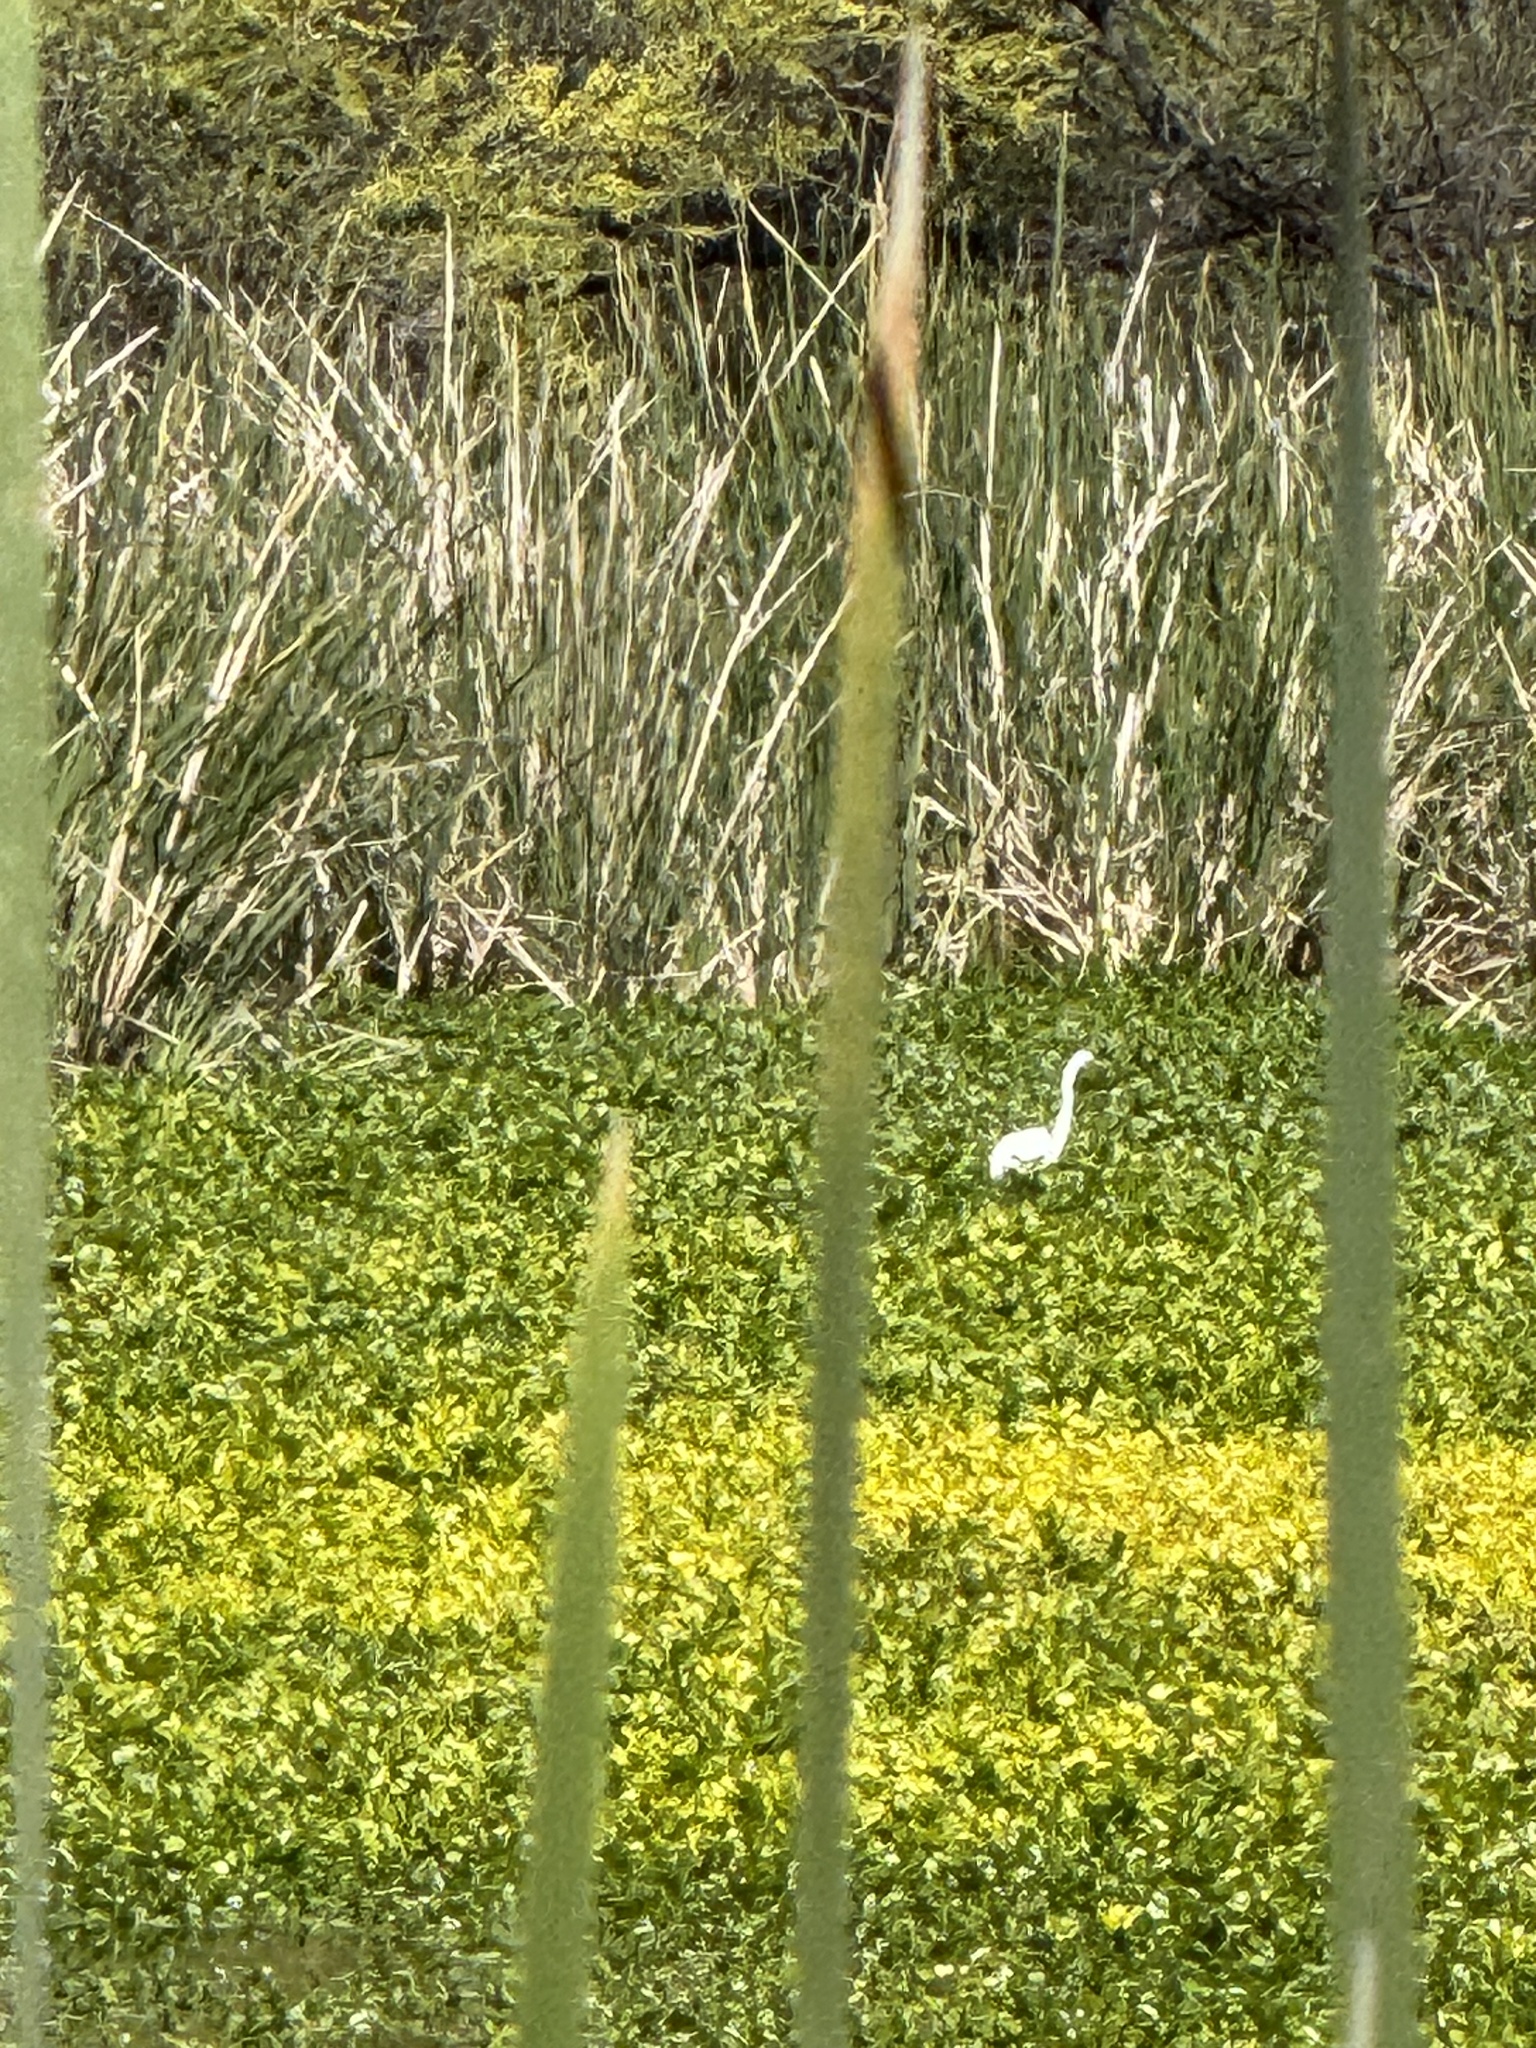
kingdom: Animalia
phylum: Chordata
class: Aves
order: Pelecaniformes
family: Ardeidae
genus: Ardea
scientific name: Ardea alba
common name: Great egret
